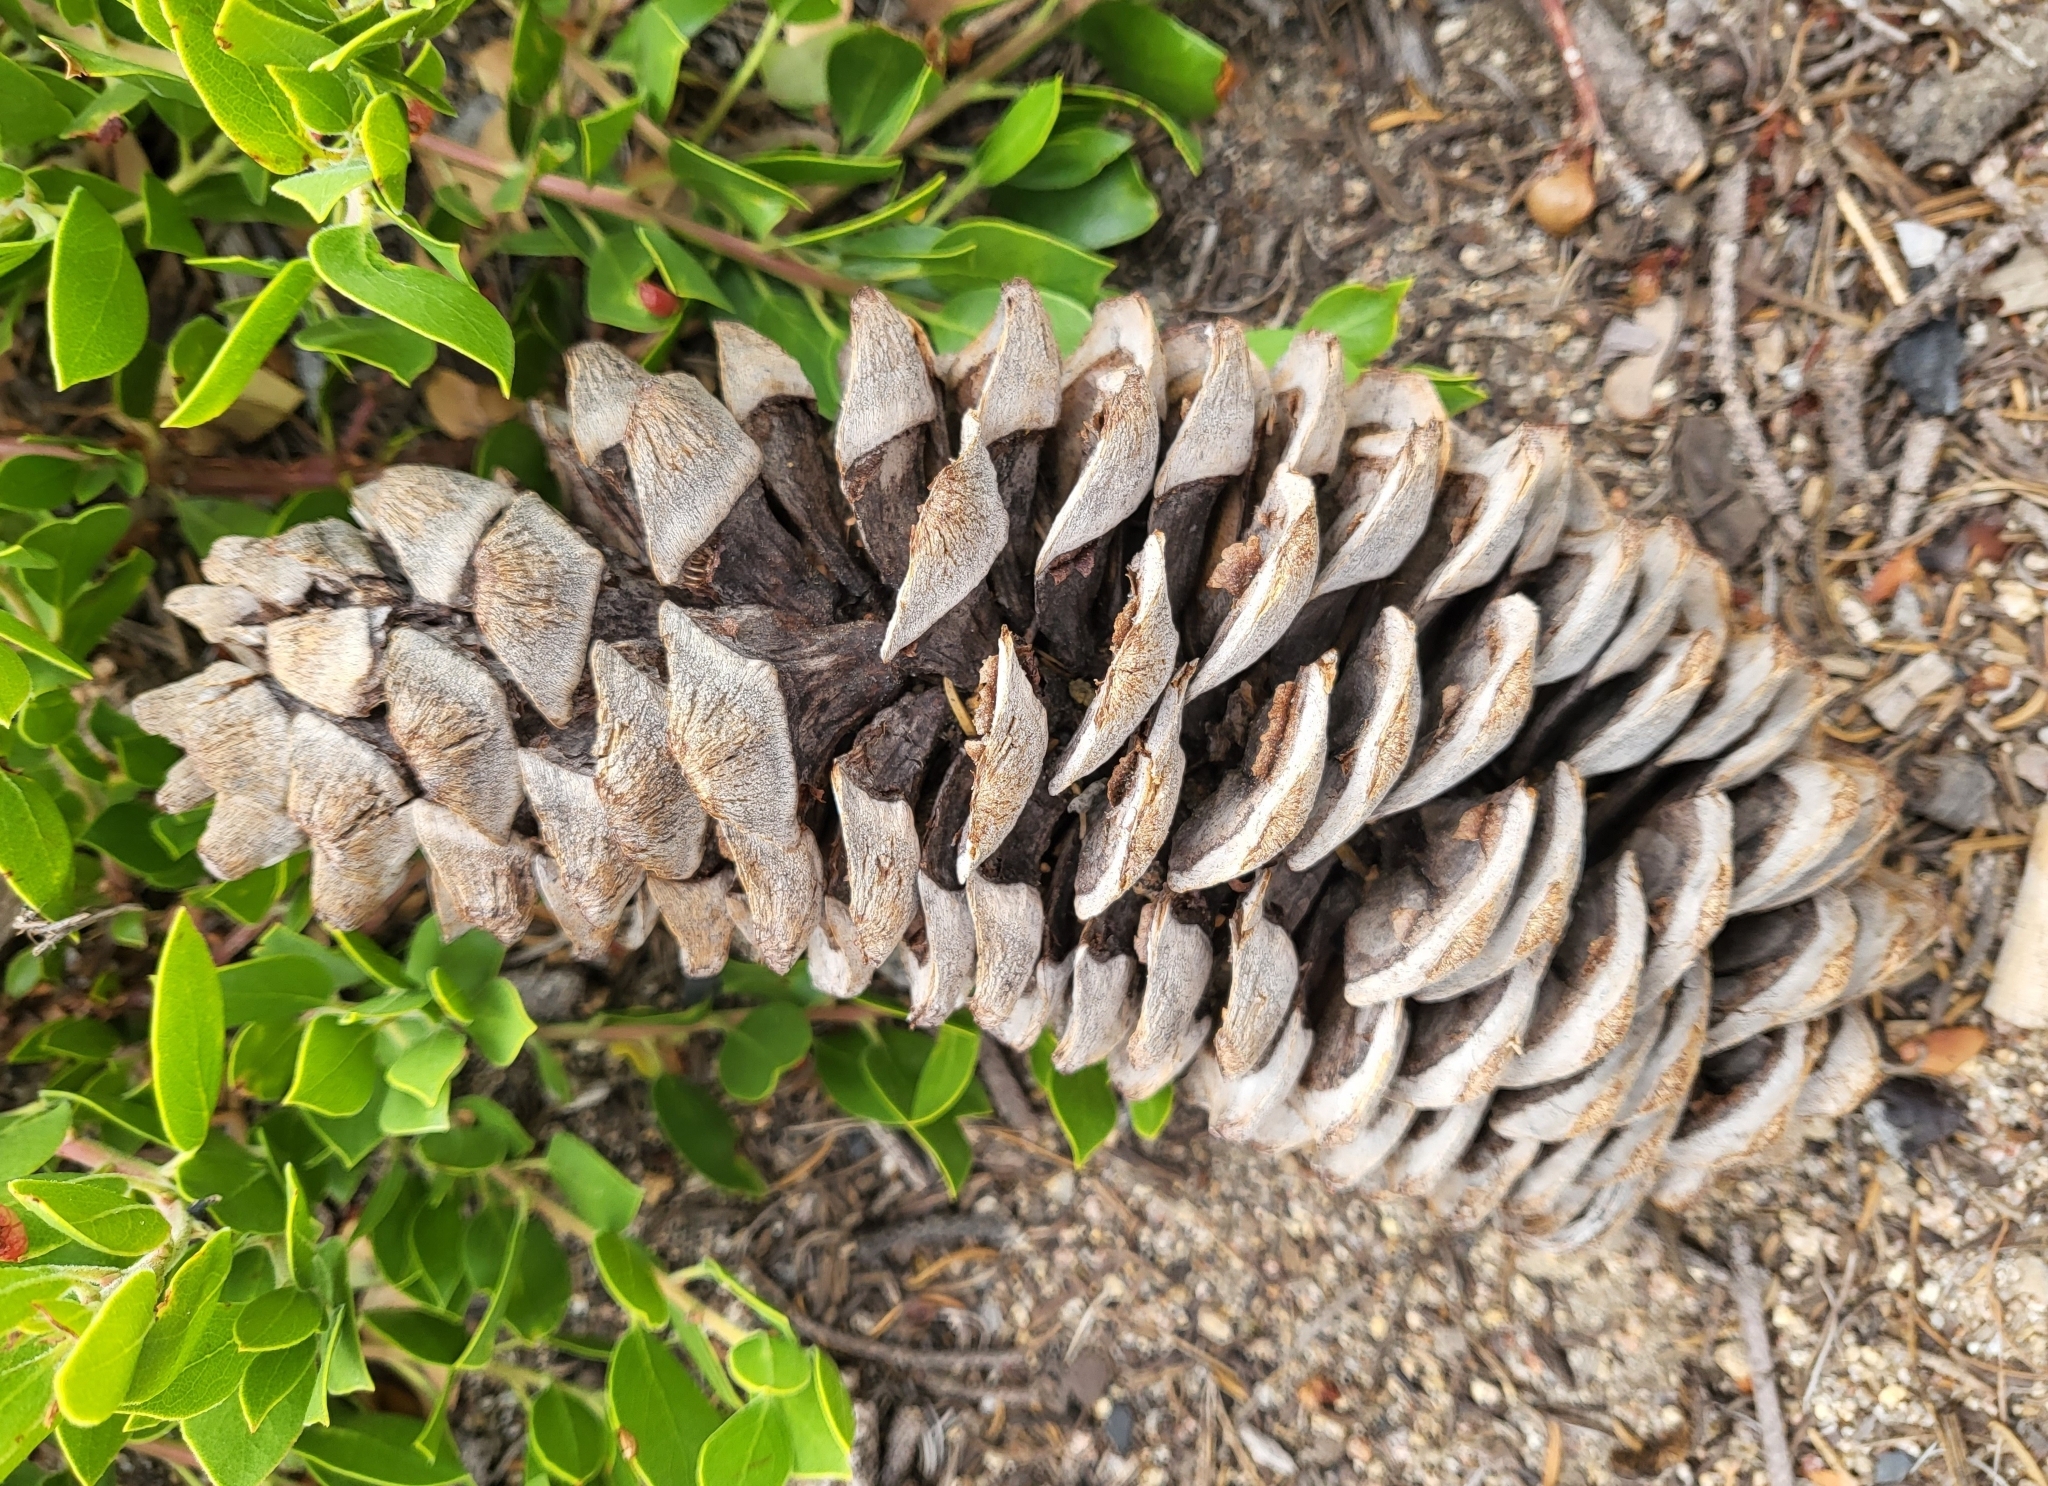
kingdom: Plantae
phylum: Tracheophyta
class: Pinopsida
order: Pinales
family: Pinaceae
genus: Pinus
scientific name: Pinus lambertiana
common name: Sugar pine
